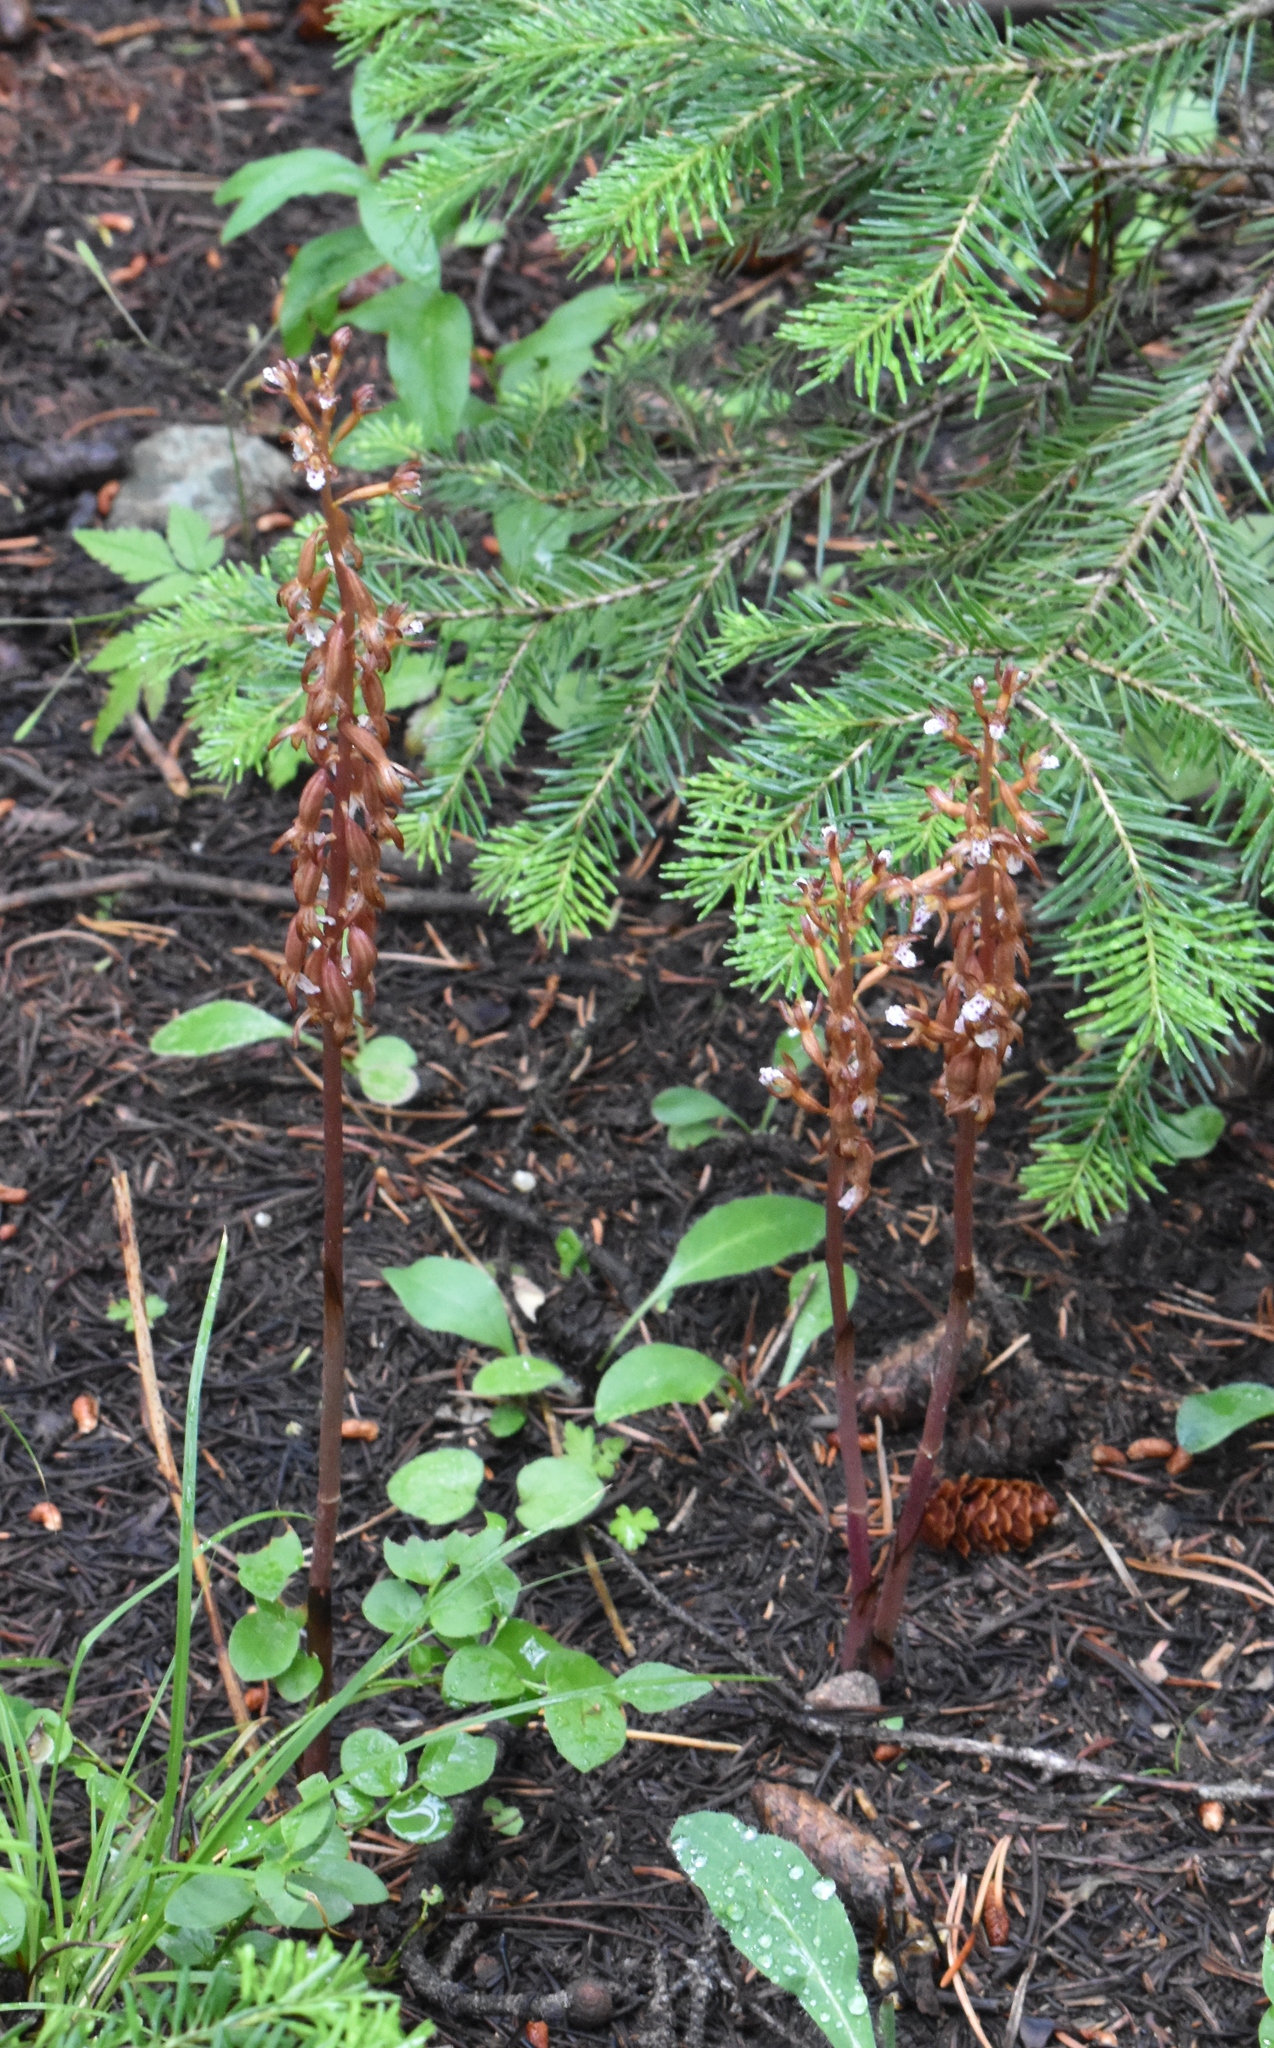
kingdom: Plantae
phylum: Tracheophyta
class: Liliopsida
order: Asparagales
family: Orchidaceae
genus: Corallorhiza
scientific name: Corallorhiza maculata
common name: Spotted coralroot
